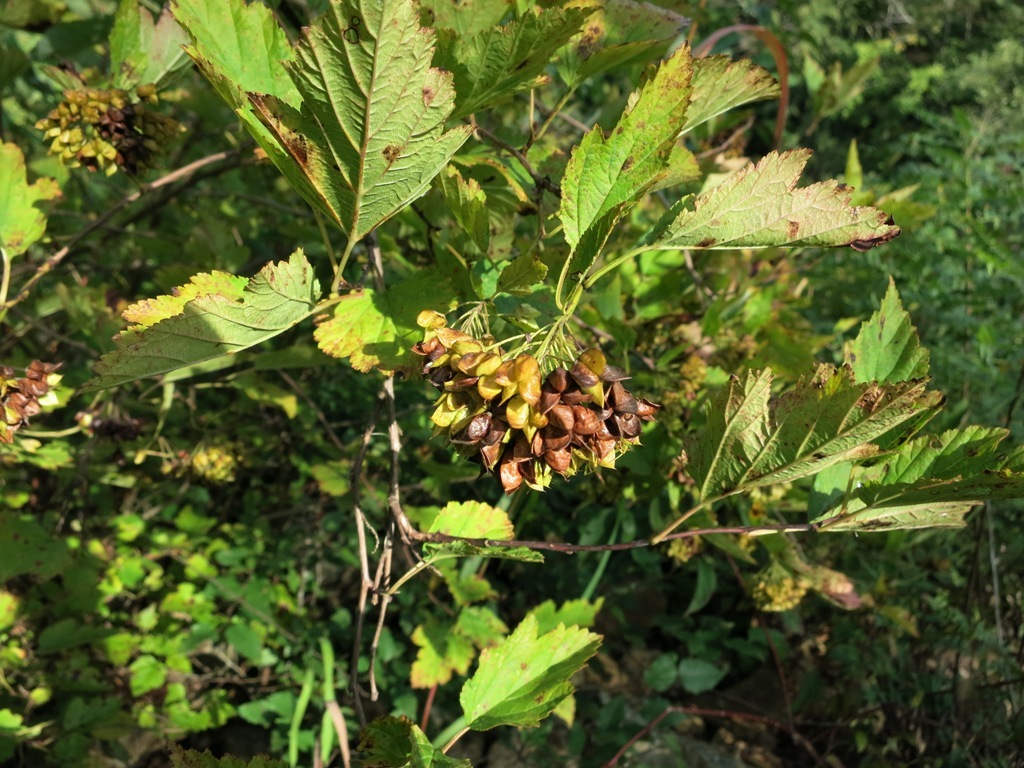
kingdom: Plantae
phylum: Tracheophyta
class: Magnoliopsida
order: Rosales
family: Rosaceae
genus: Physocarpus
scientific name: Physocarpus opulifolius
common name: Ninebark
